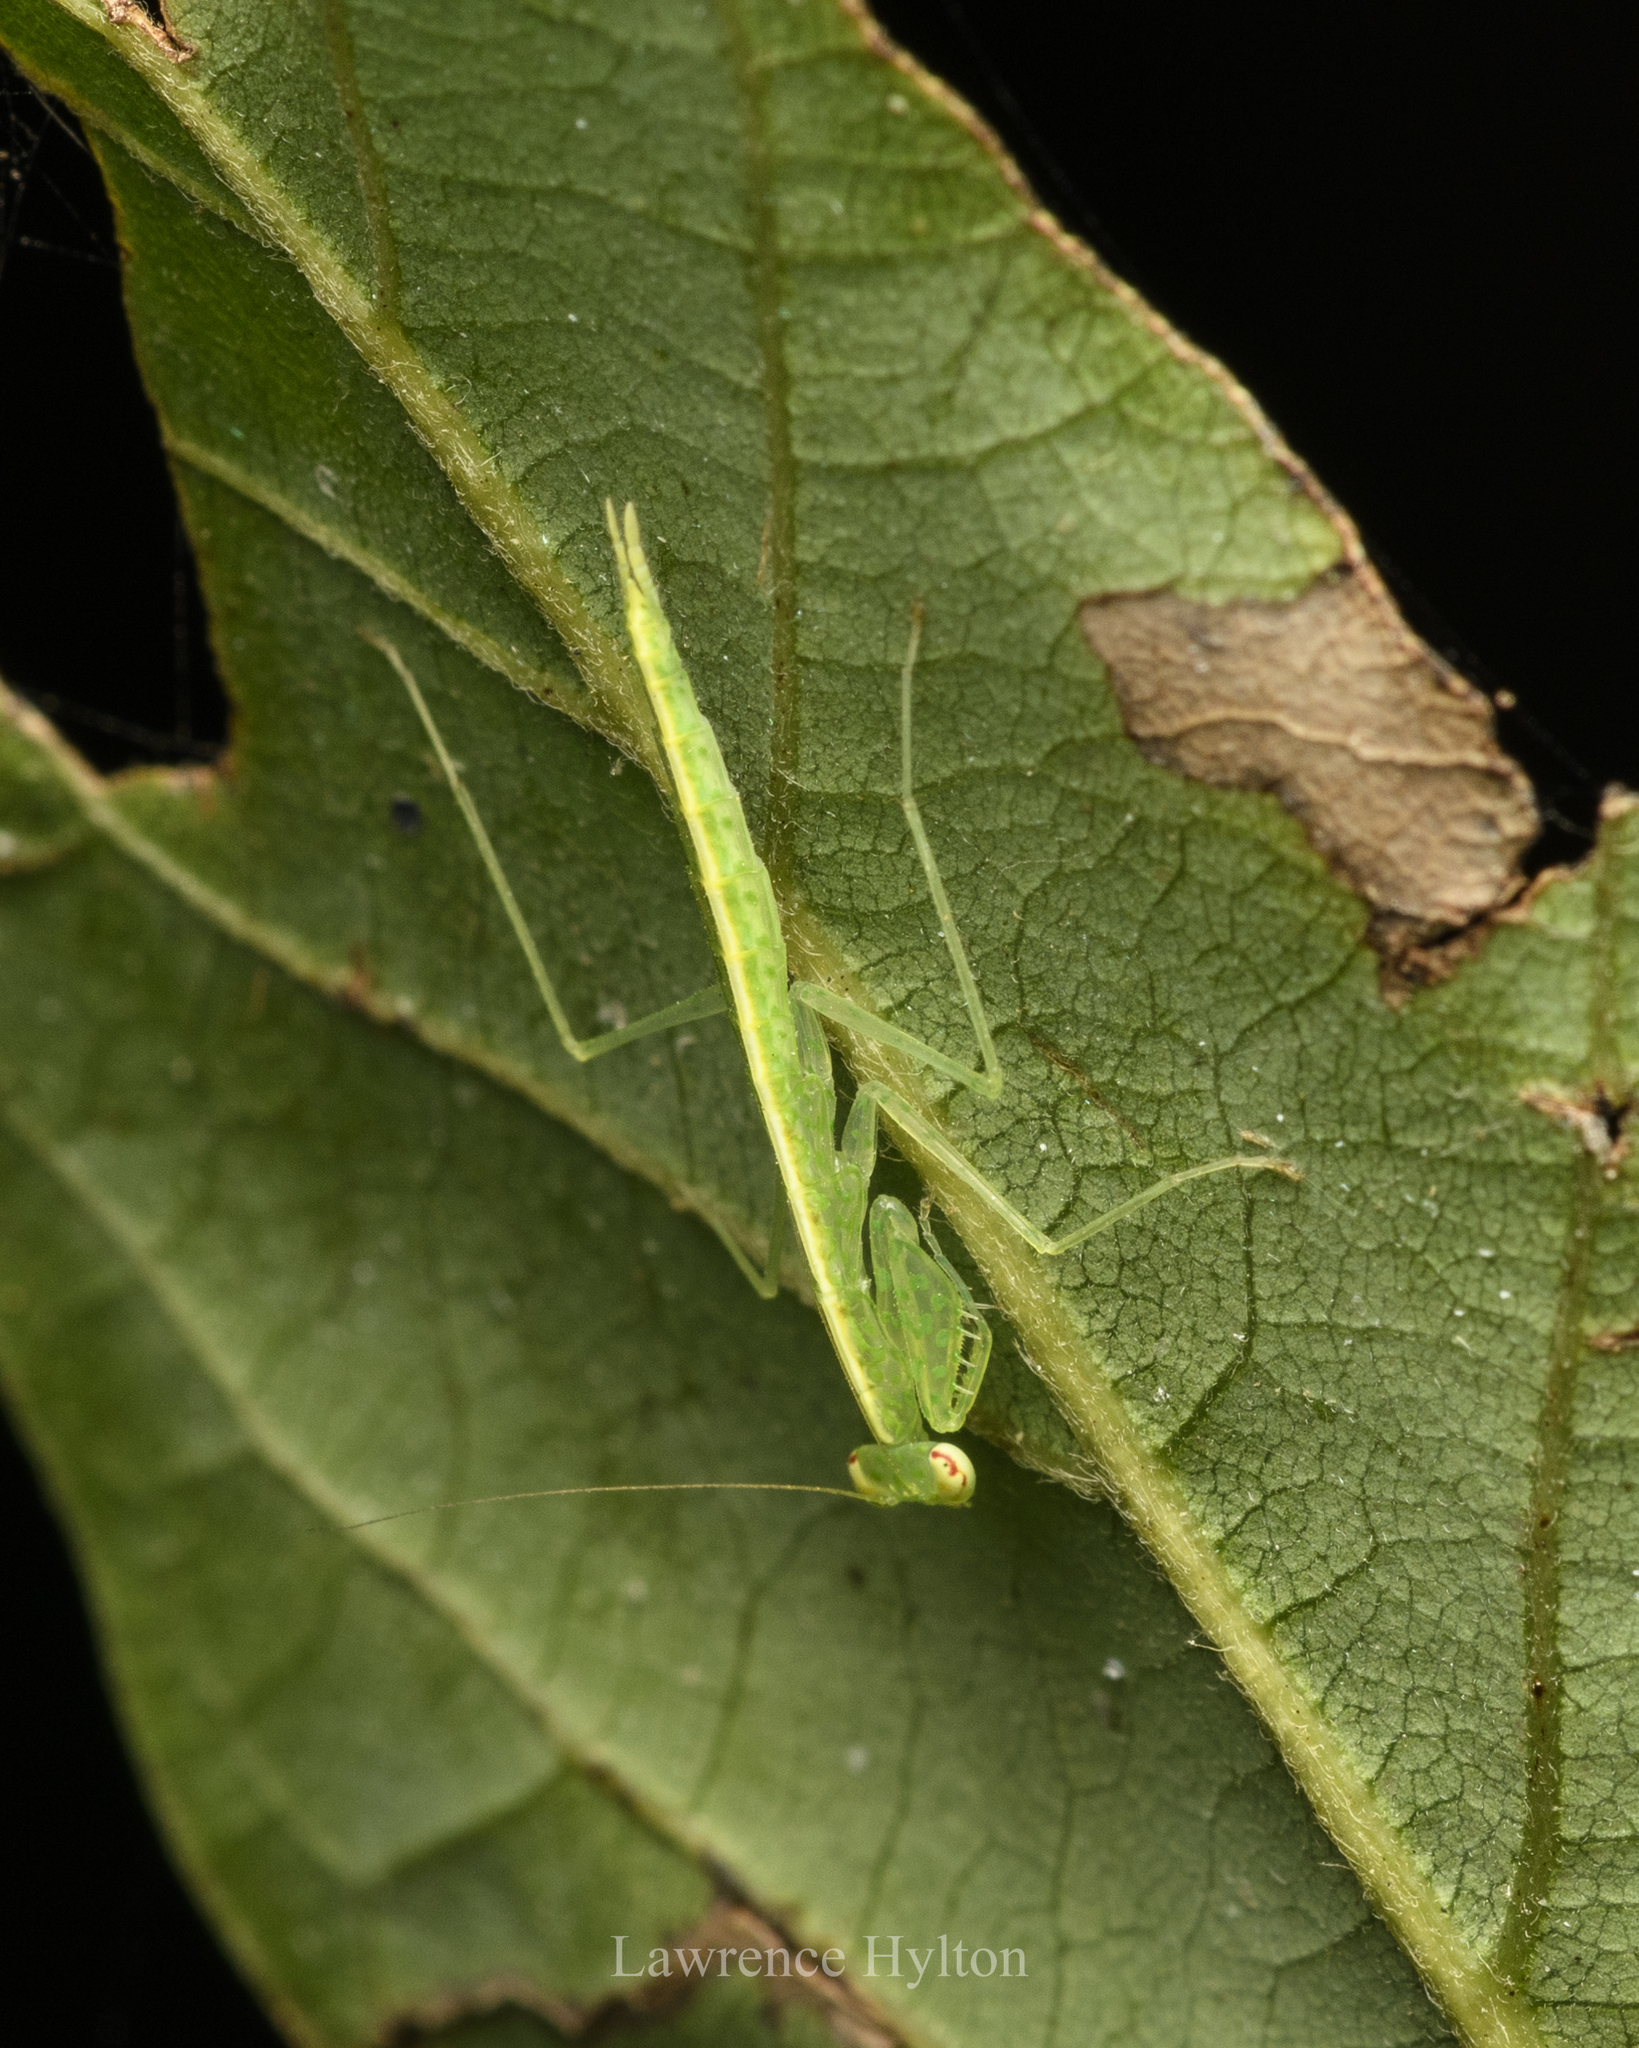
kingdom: Animalia
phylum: Arthropoda
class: Insecta
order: Mantodea
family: Nanomantidae
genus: Tropidomantis
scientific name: Tropidomantis gressitti
